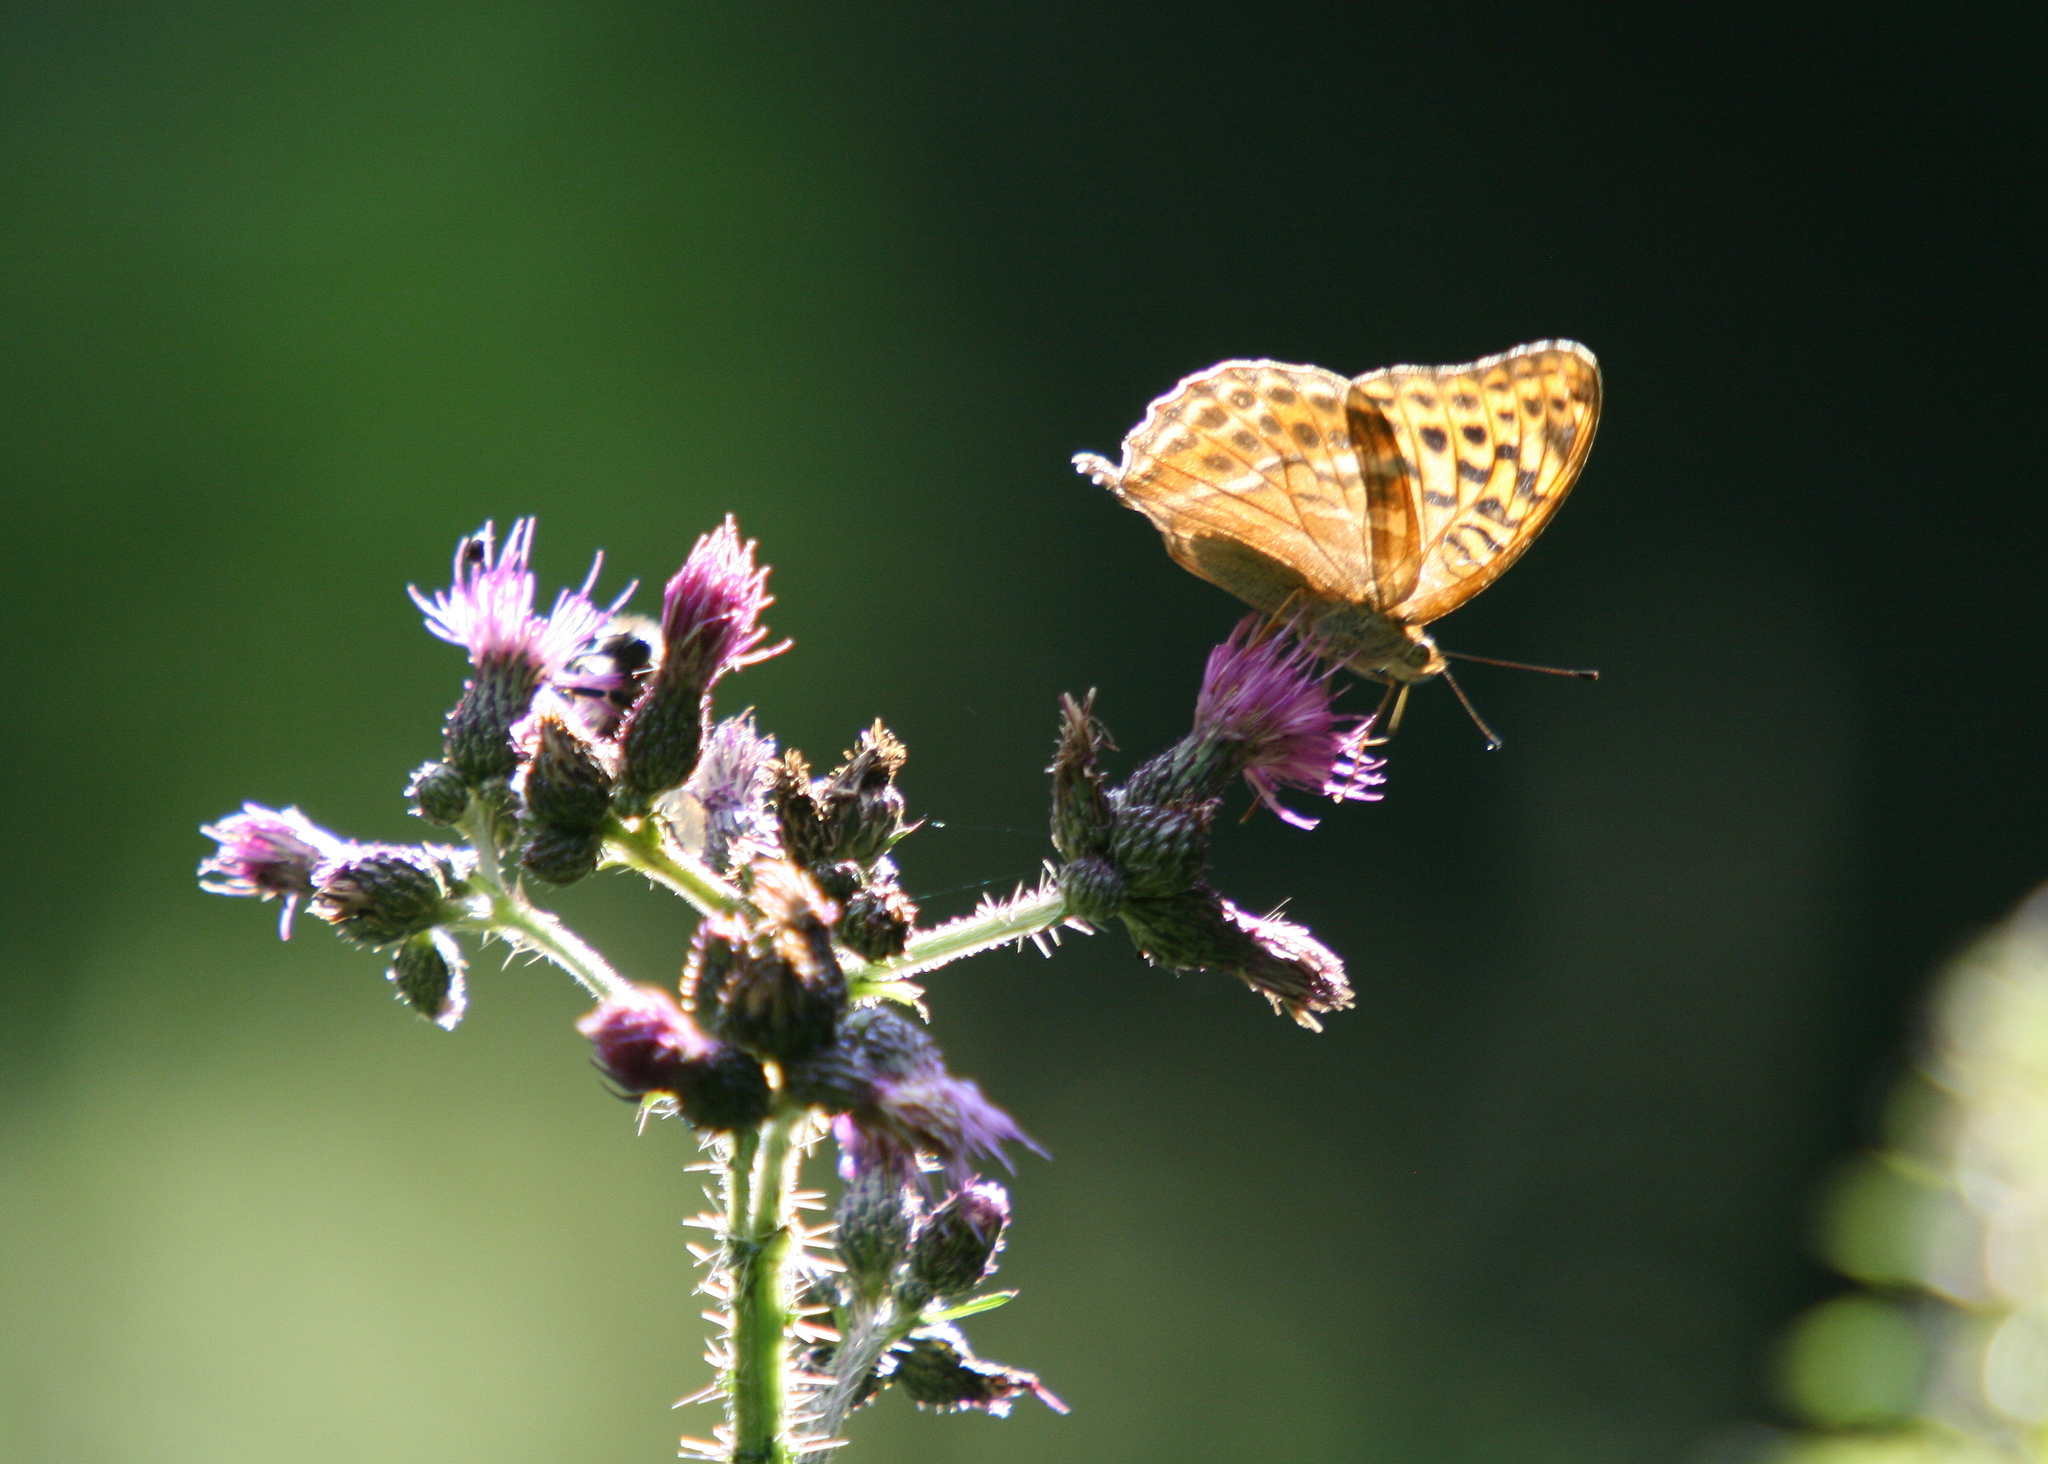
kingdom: Animalia
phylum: Arthropoda
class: Insecta
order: Lepidoptera
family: Nymphalidae
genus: Argynnis
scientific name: Argynnis paphia
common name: Silver-washed fritillary
